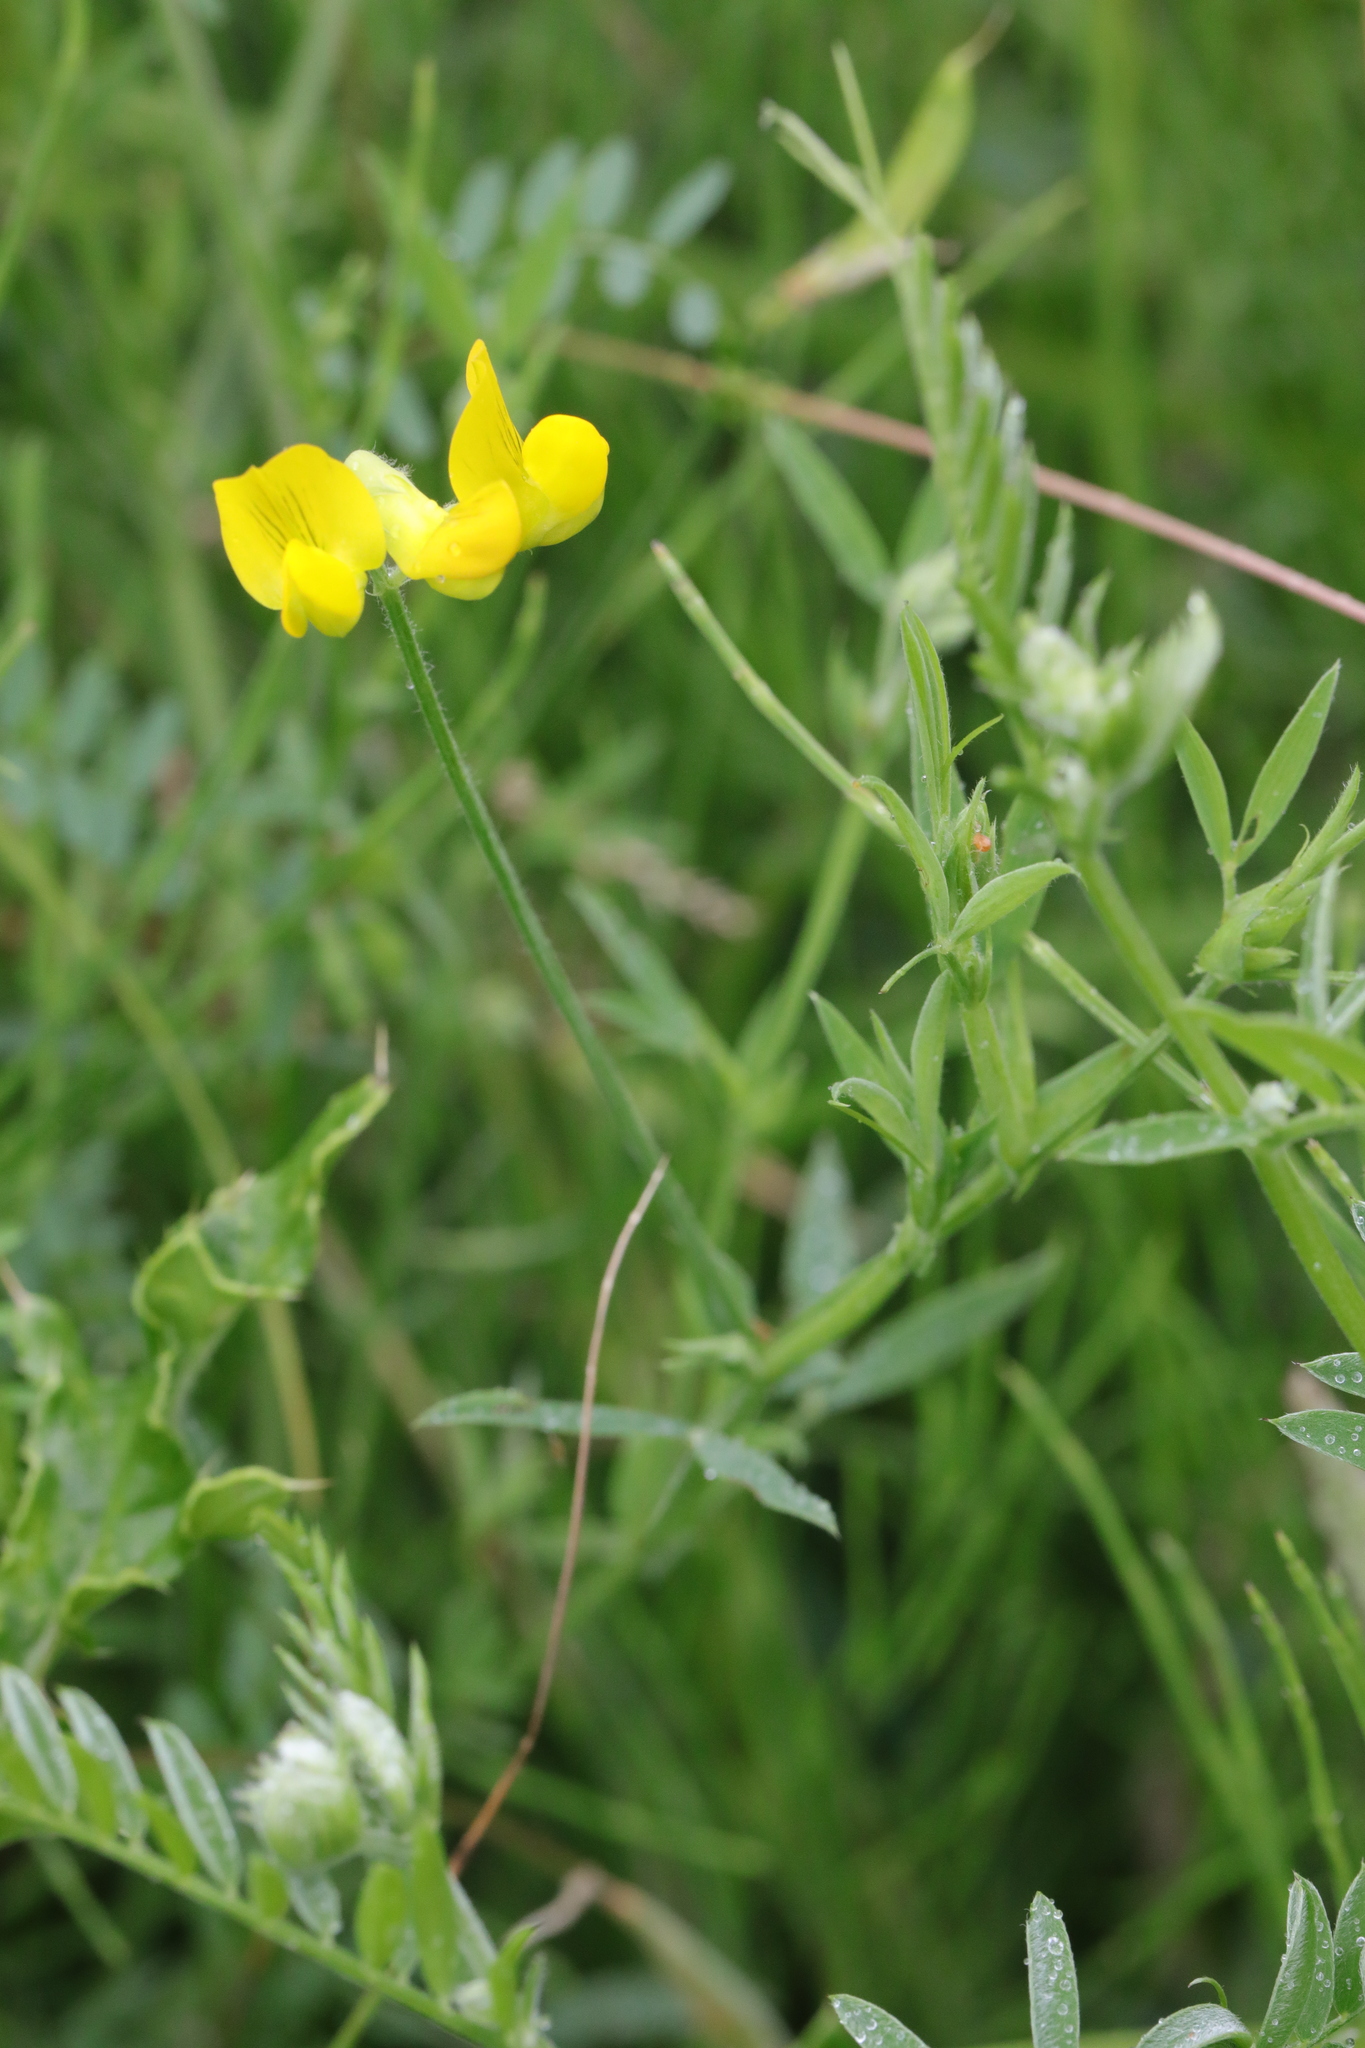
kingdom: Plantae
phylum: Tracheophyta
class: Magnoliopsida
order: Fabales
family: Fabaceae
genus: Lathyrus
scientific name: Lathyrus pratensis
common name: Meadow vetchling
